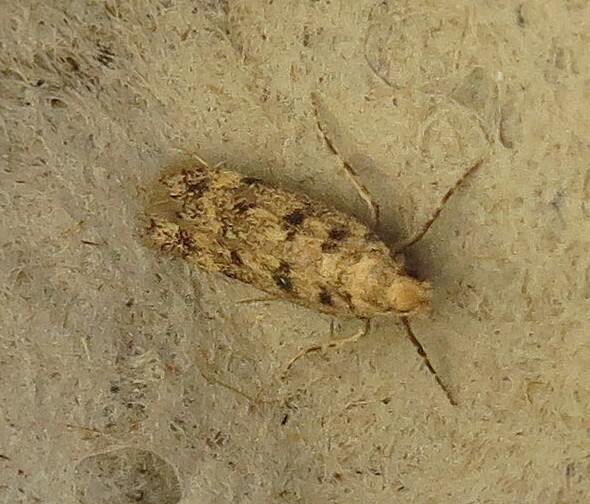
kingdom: Animalia
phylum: Arthropoda
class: Insecta
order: Lepidoptera
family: Gelechiidae
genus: Bryotropha
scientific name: Bryotropha domestica
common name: House groundling
